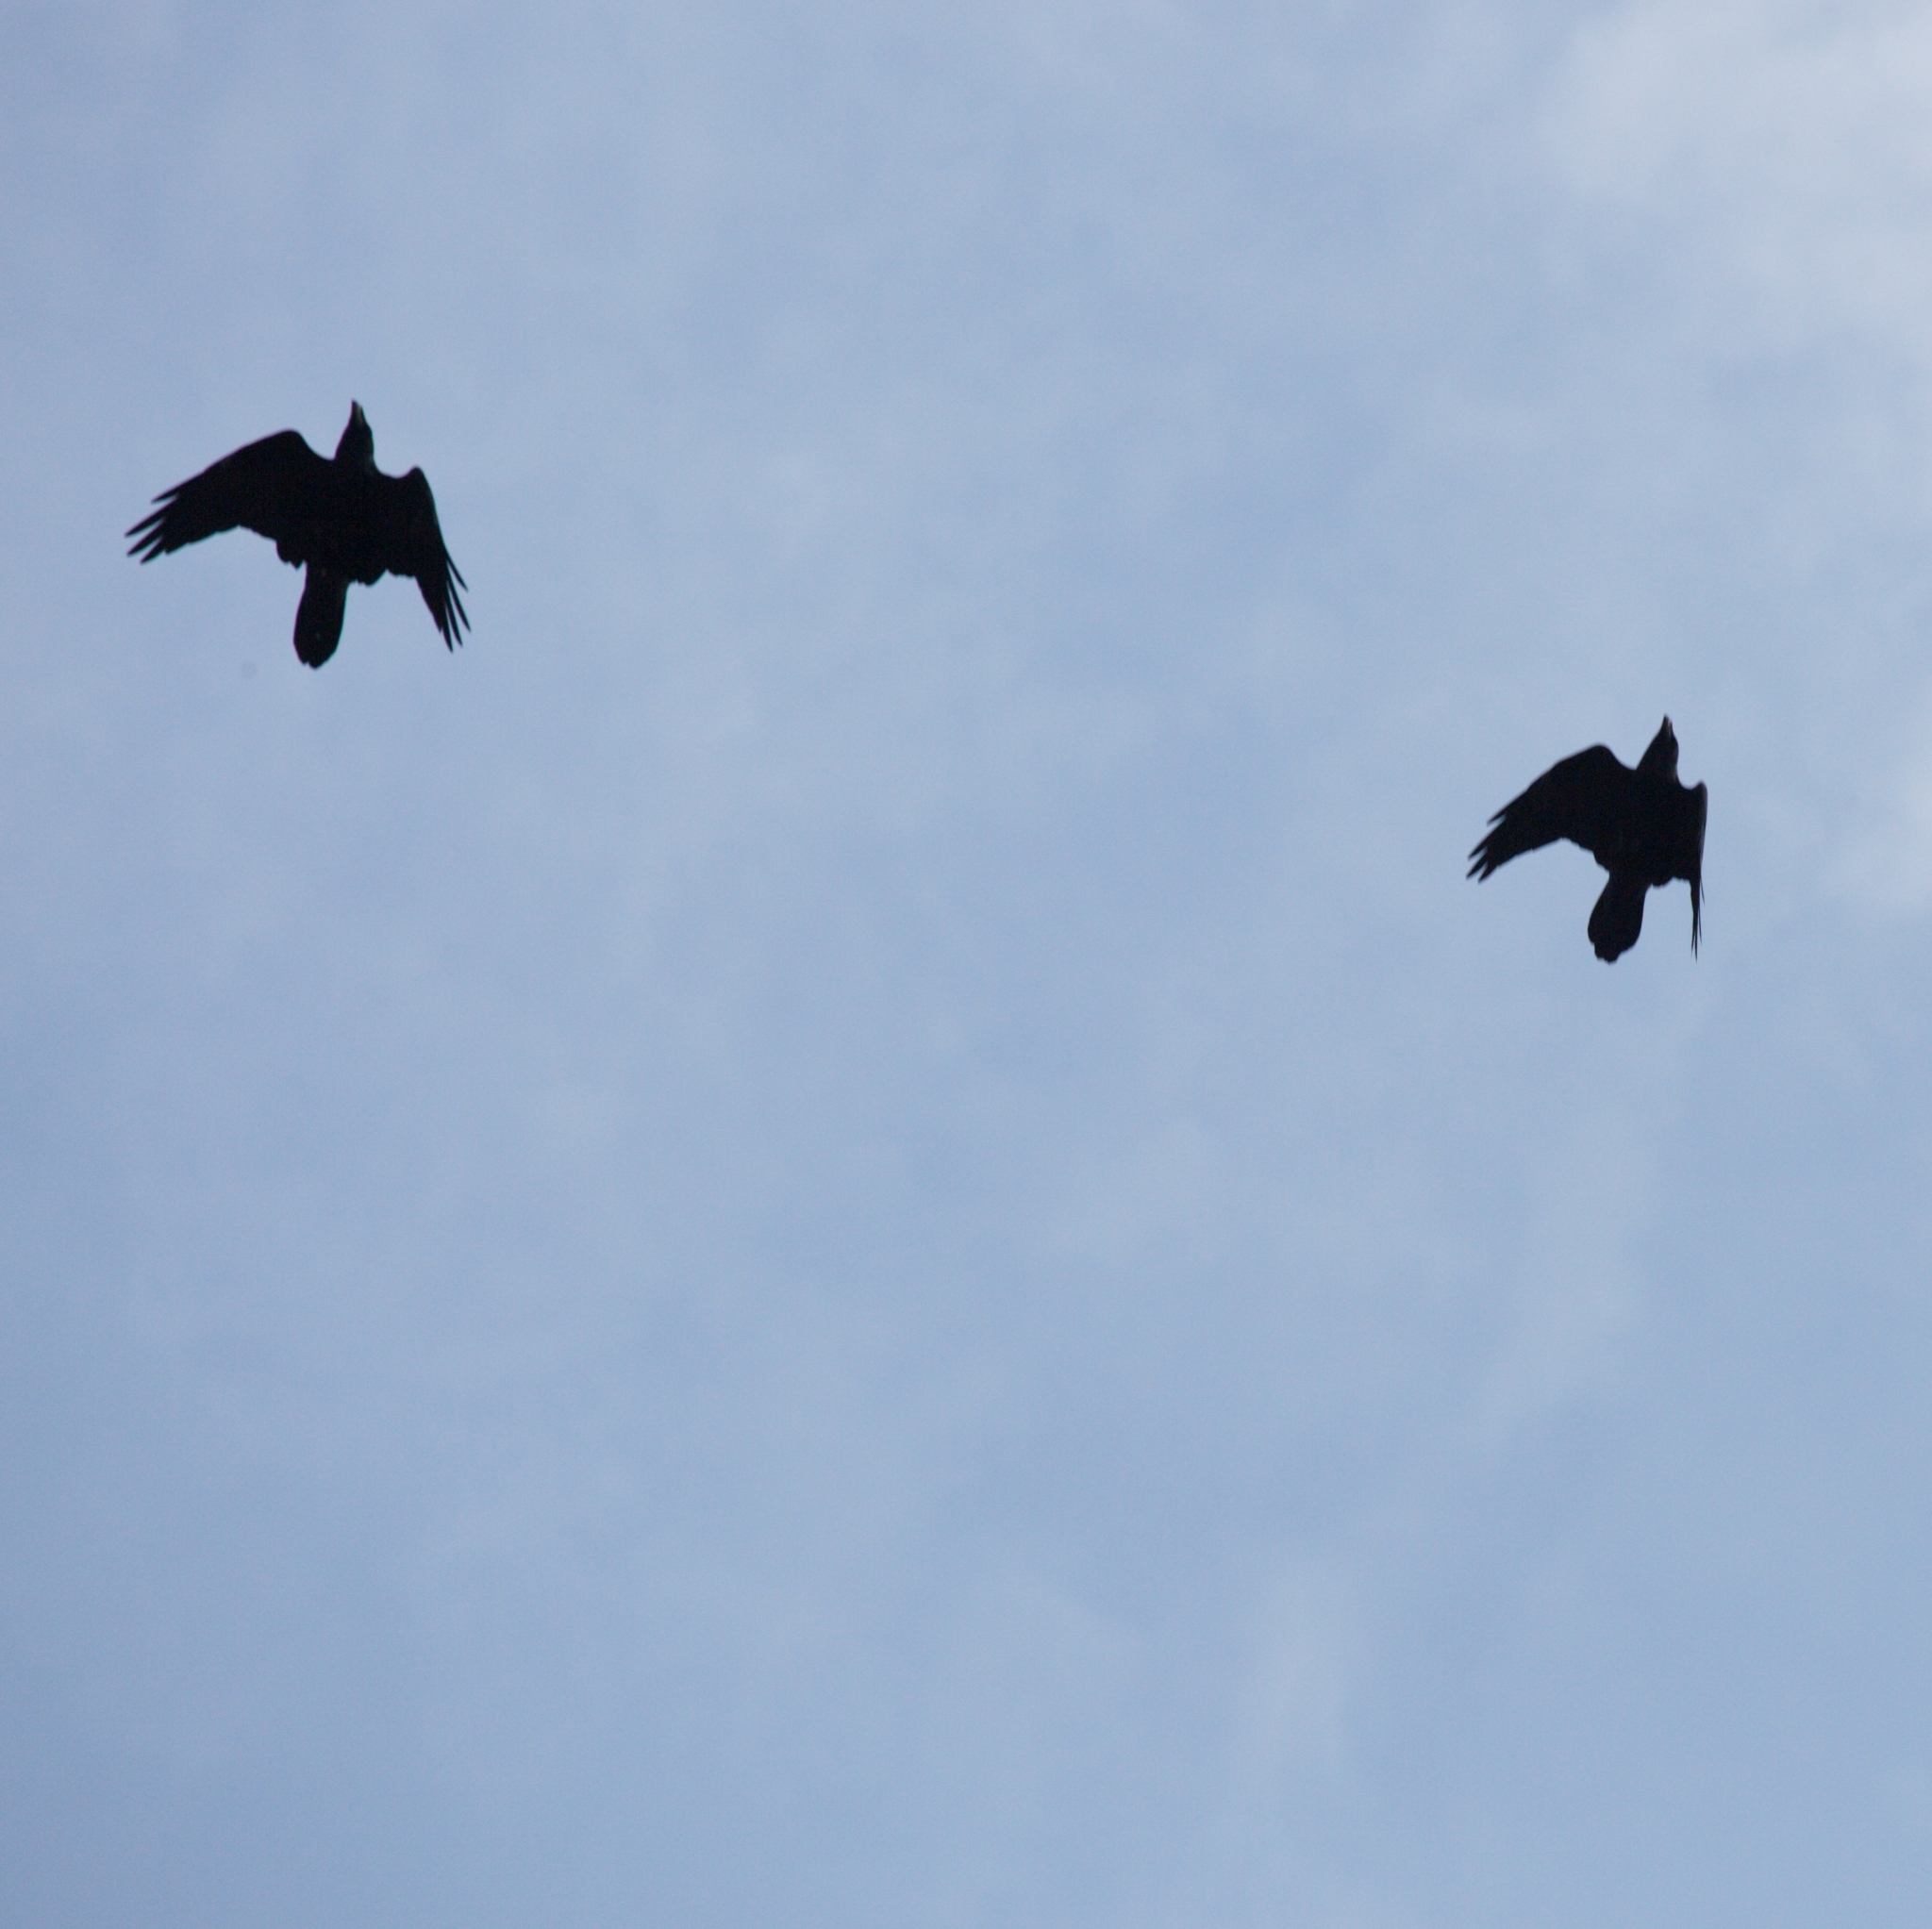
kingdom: Animalia
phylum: Chordata
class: Aves
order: Passeriformes
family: Corvidae
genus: Corvus
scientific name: Corvus corax
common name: Common raven
